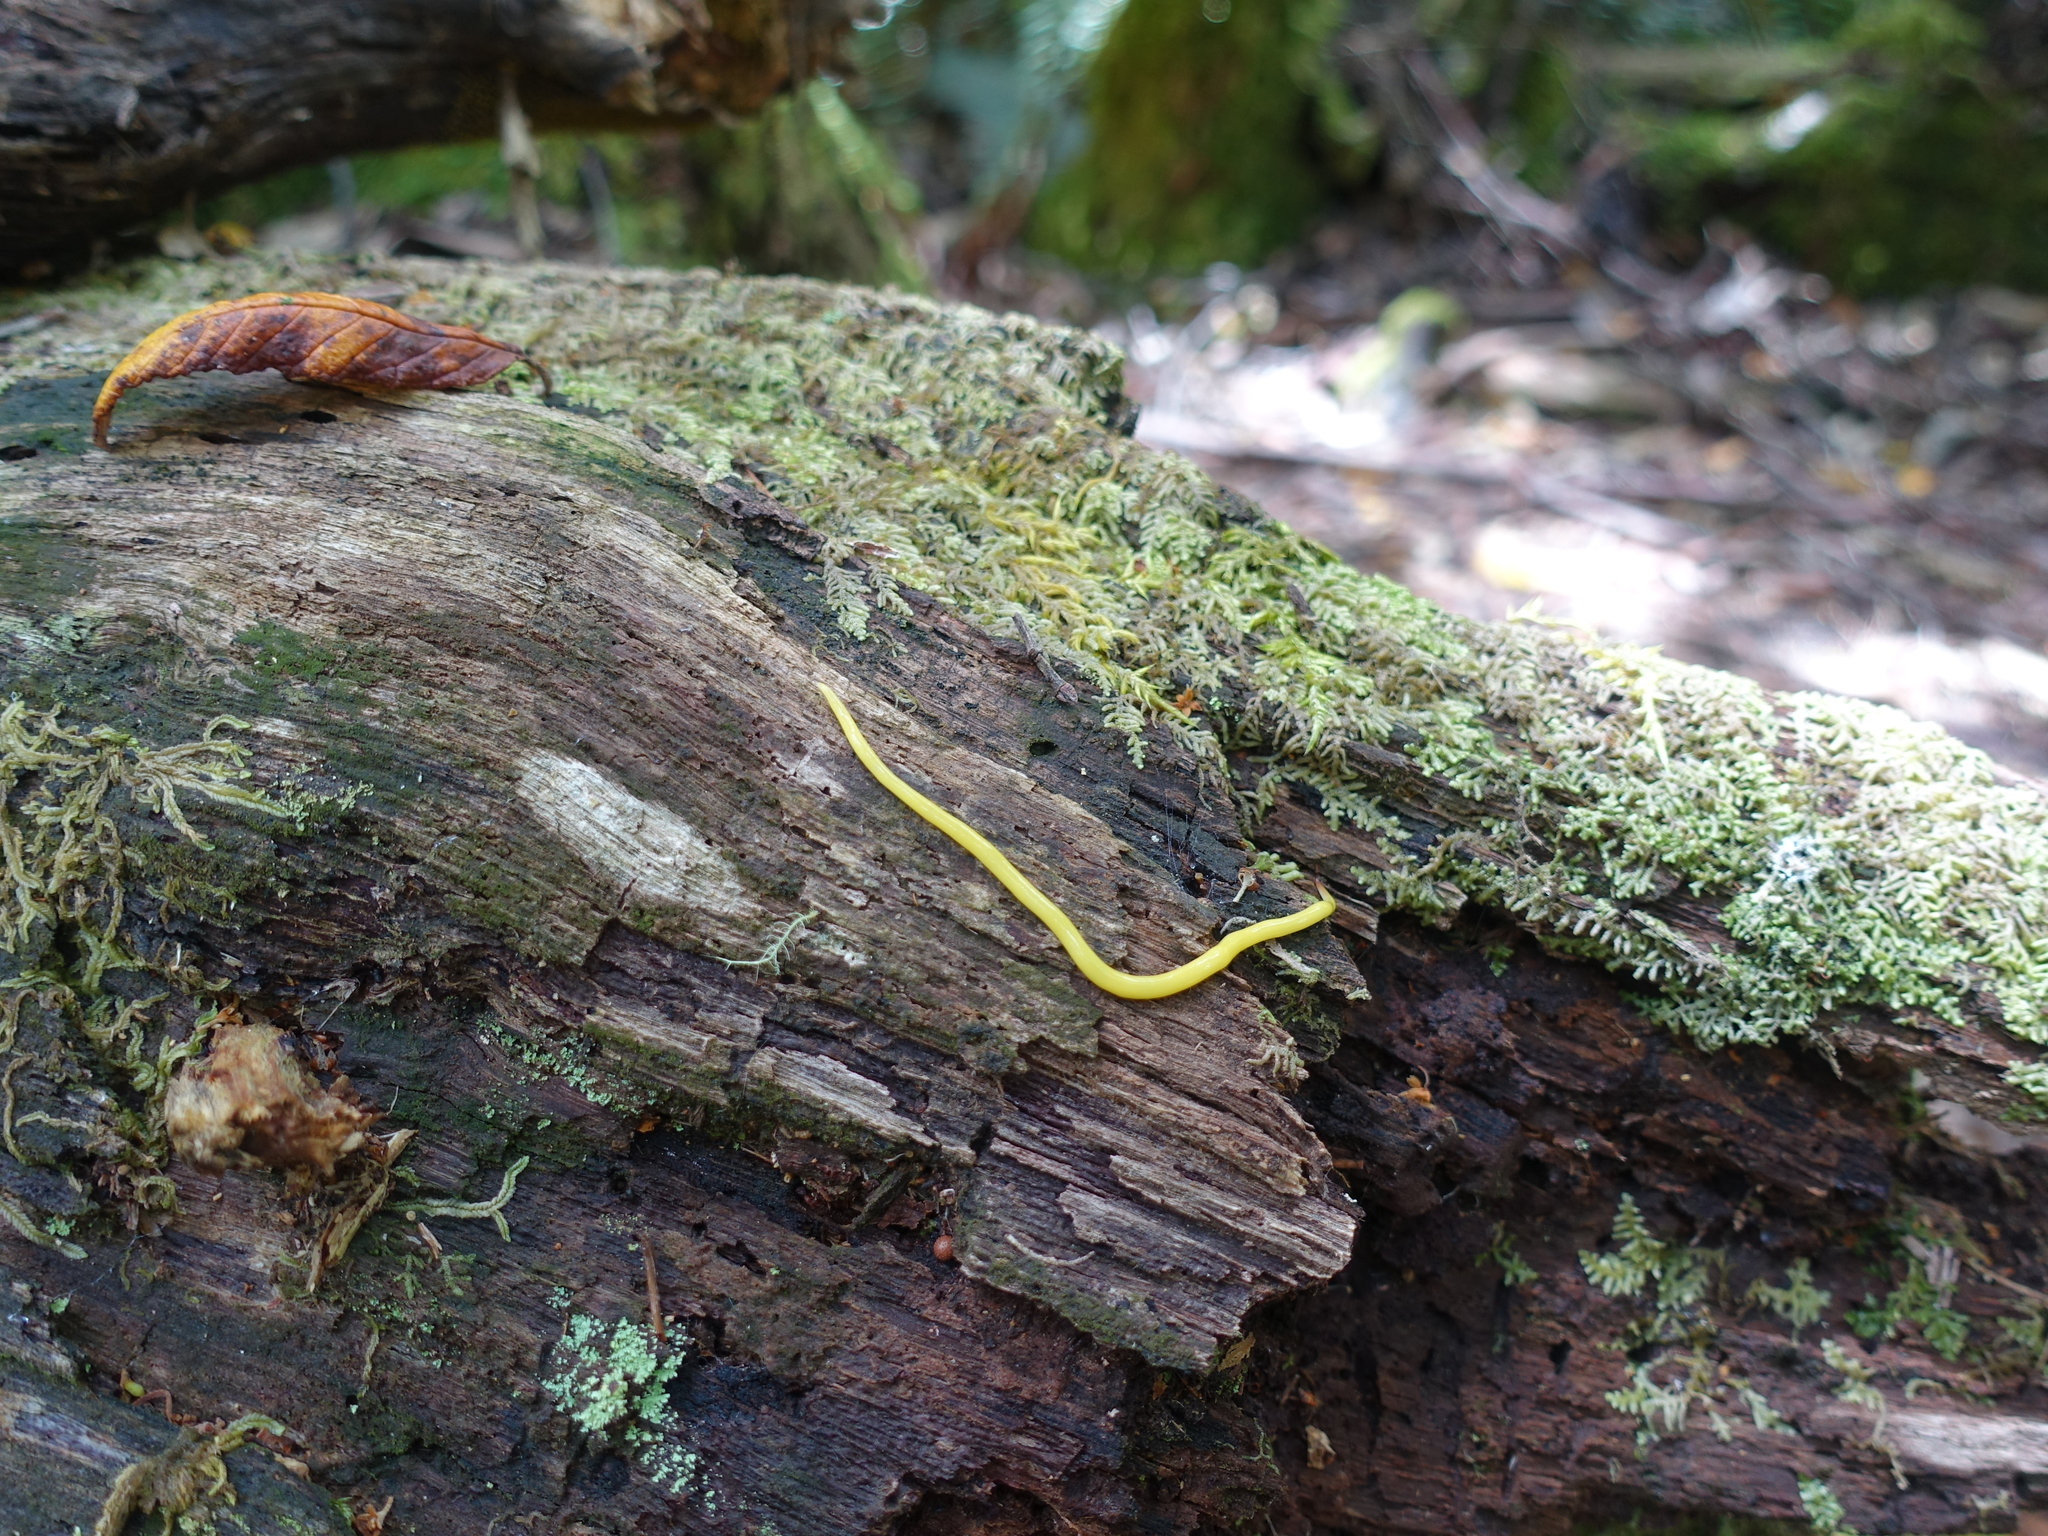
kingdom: Animalia
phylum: Platyhelminthes
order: Tricladida
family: Geoplanidae
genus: Fletchamia
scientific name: Fletchamia sugdeni
